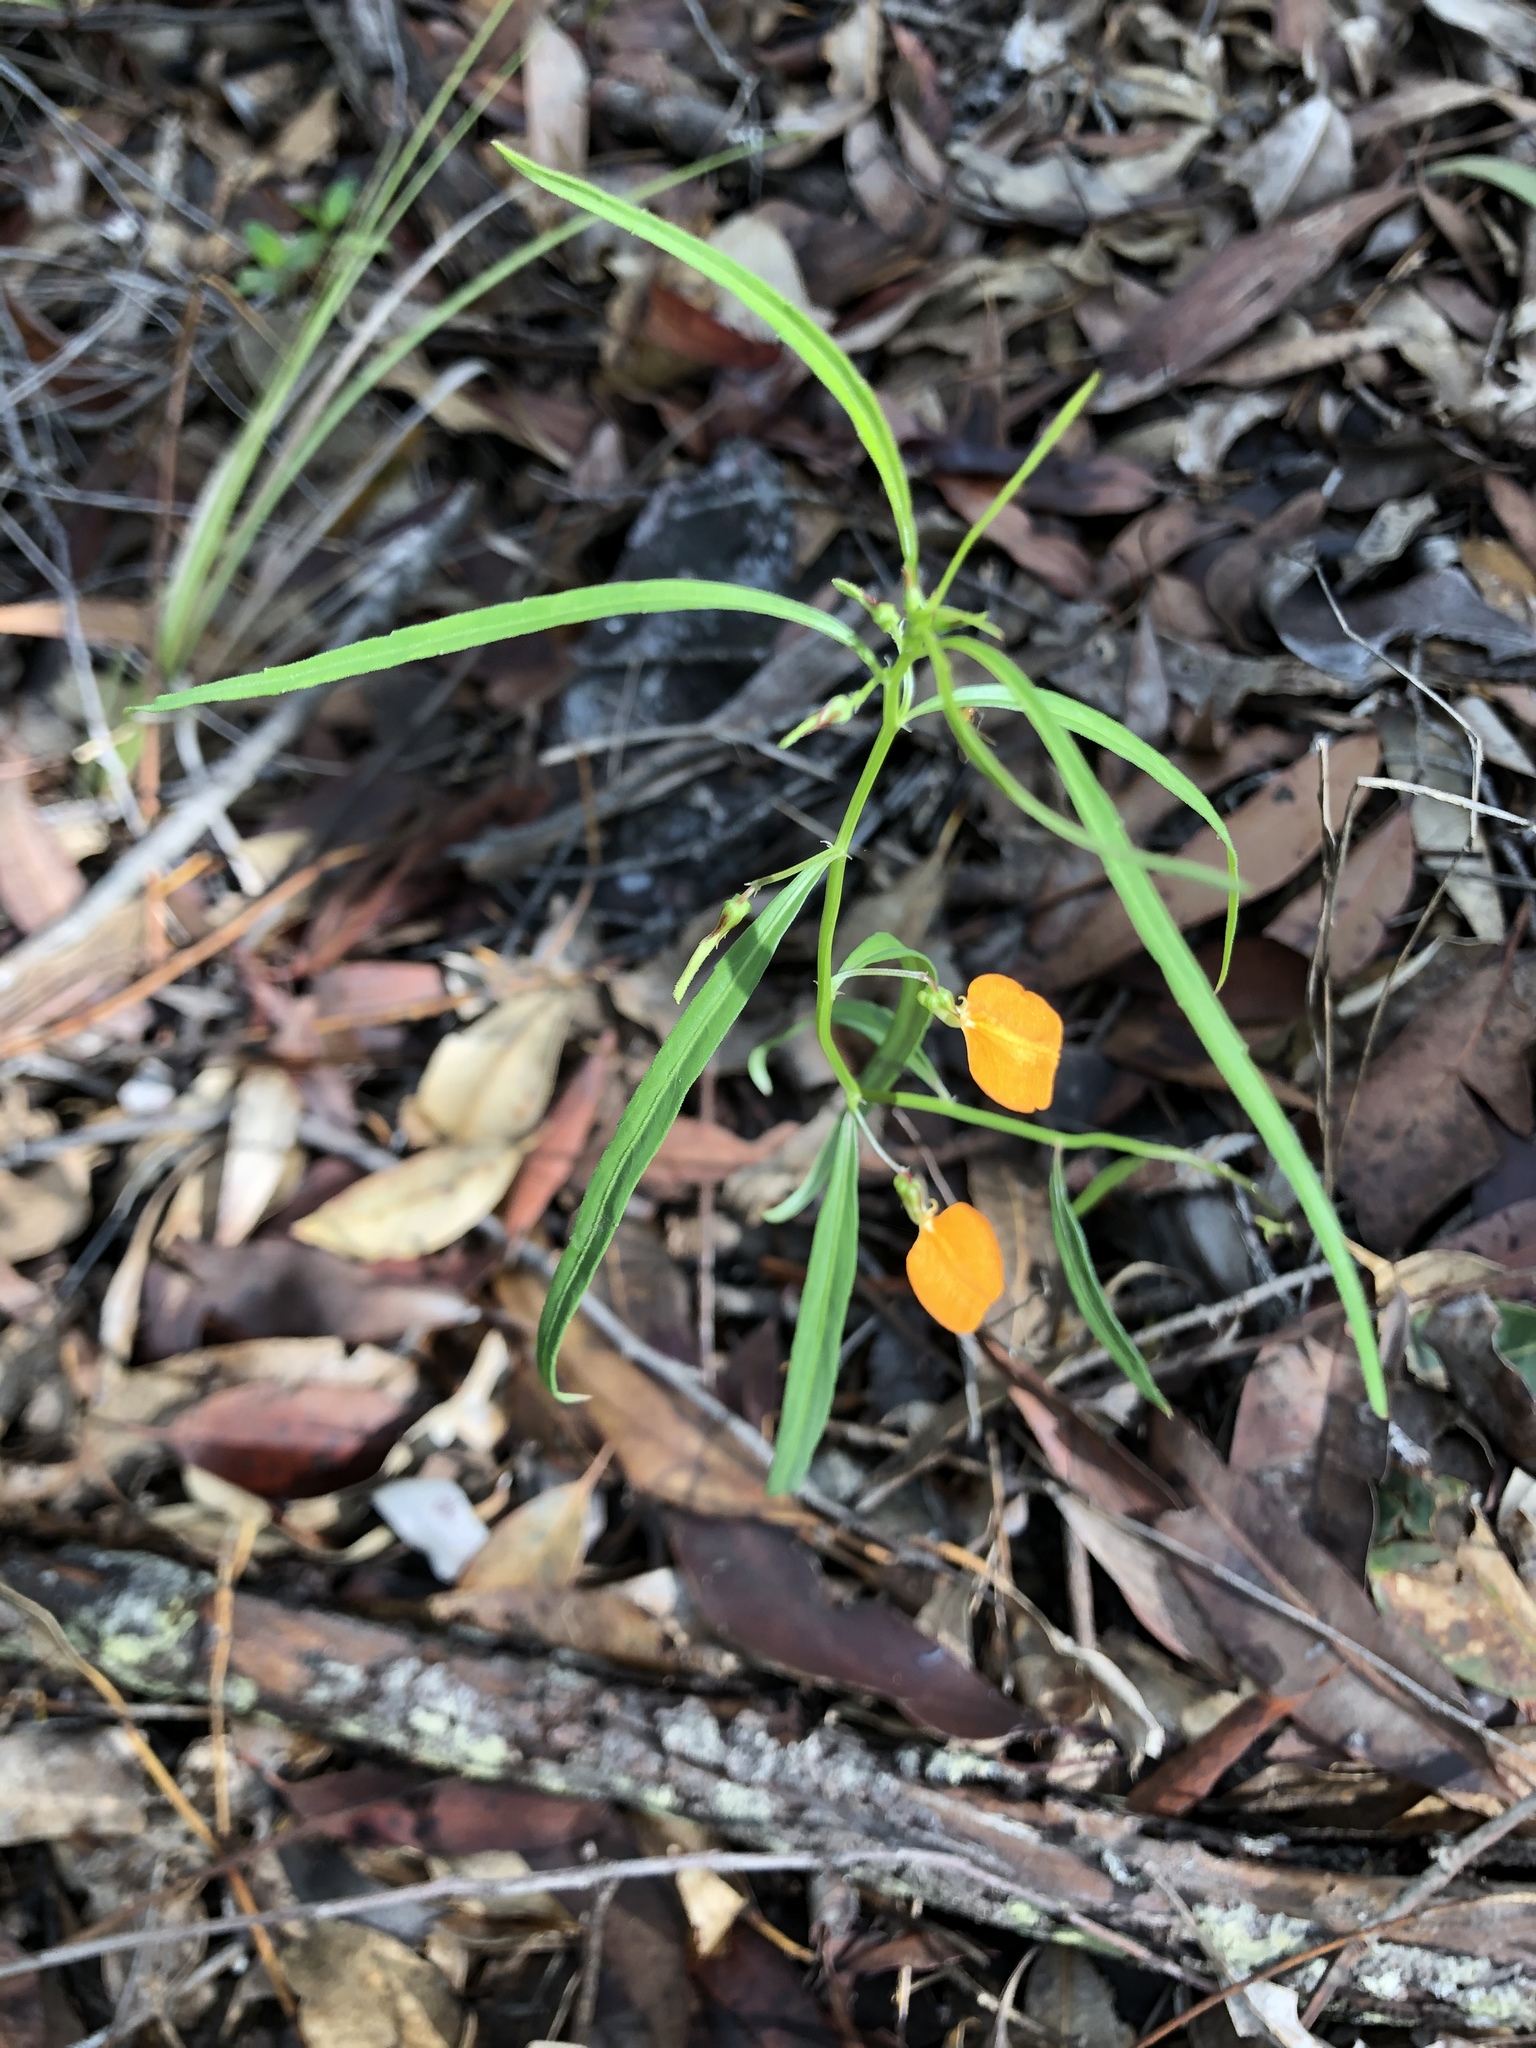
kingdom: Plantae
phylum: Tracheophyta
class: Magnoliopsida
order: Malpighiales
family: Violaceae
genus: Pigea
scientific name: Pigea stellarioides
